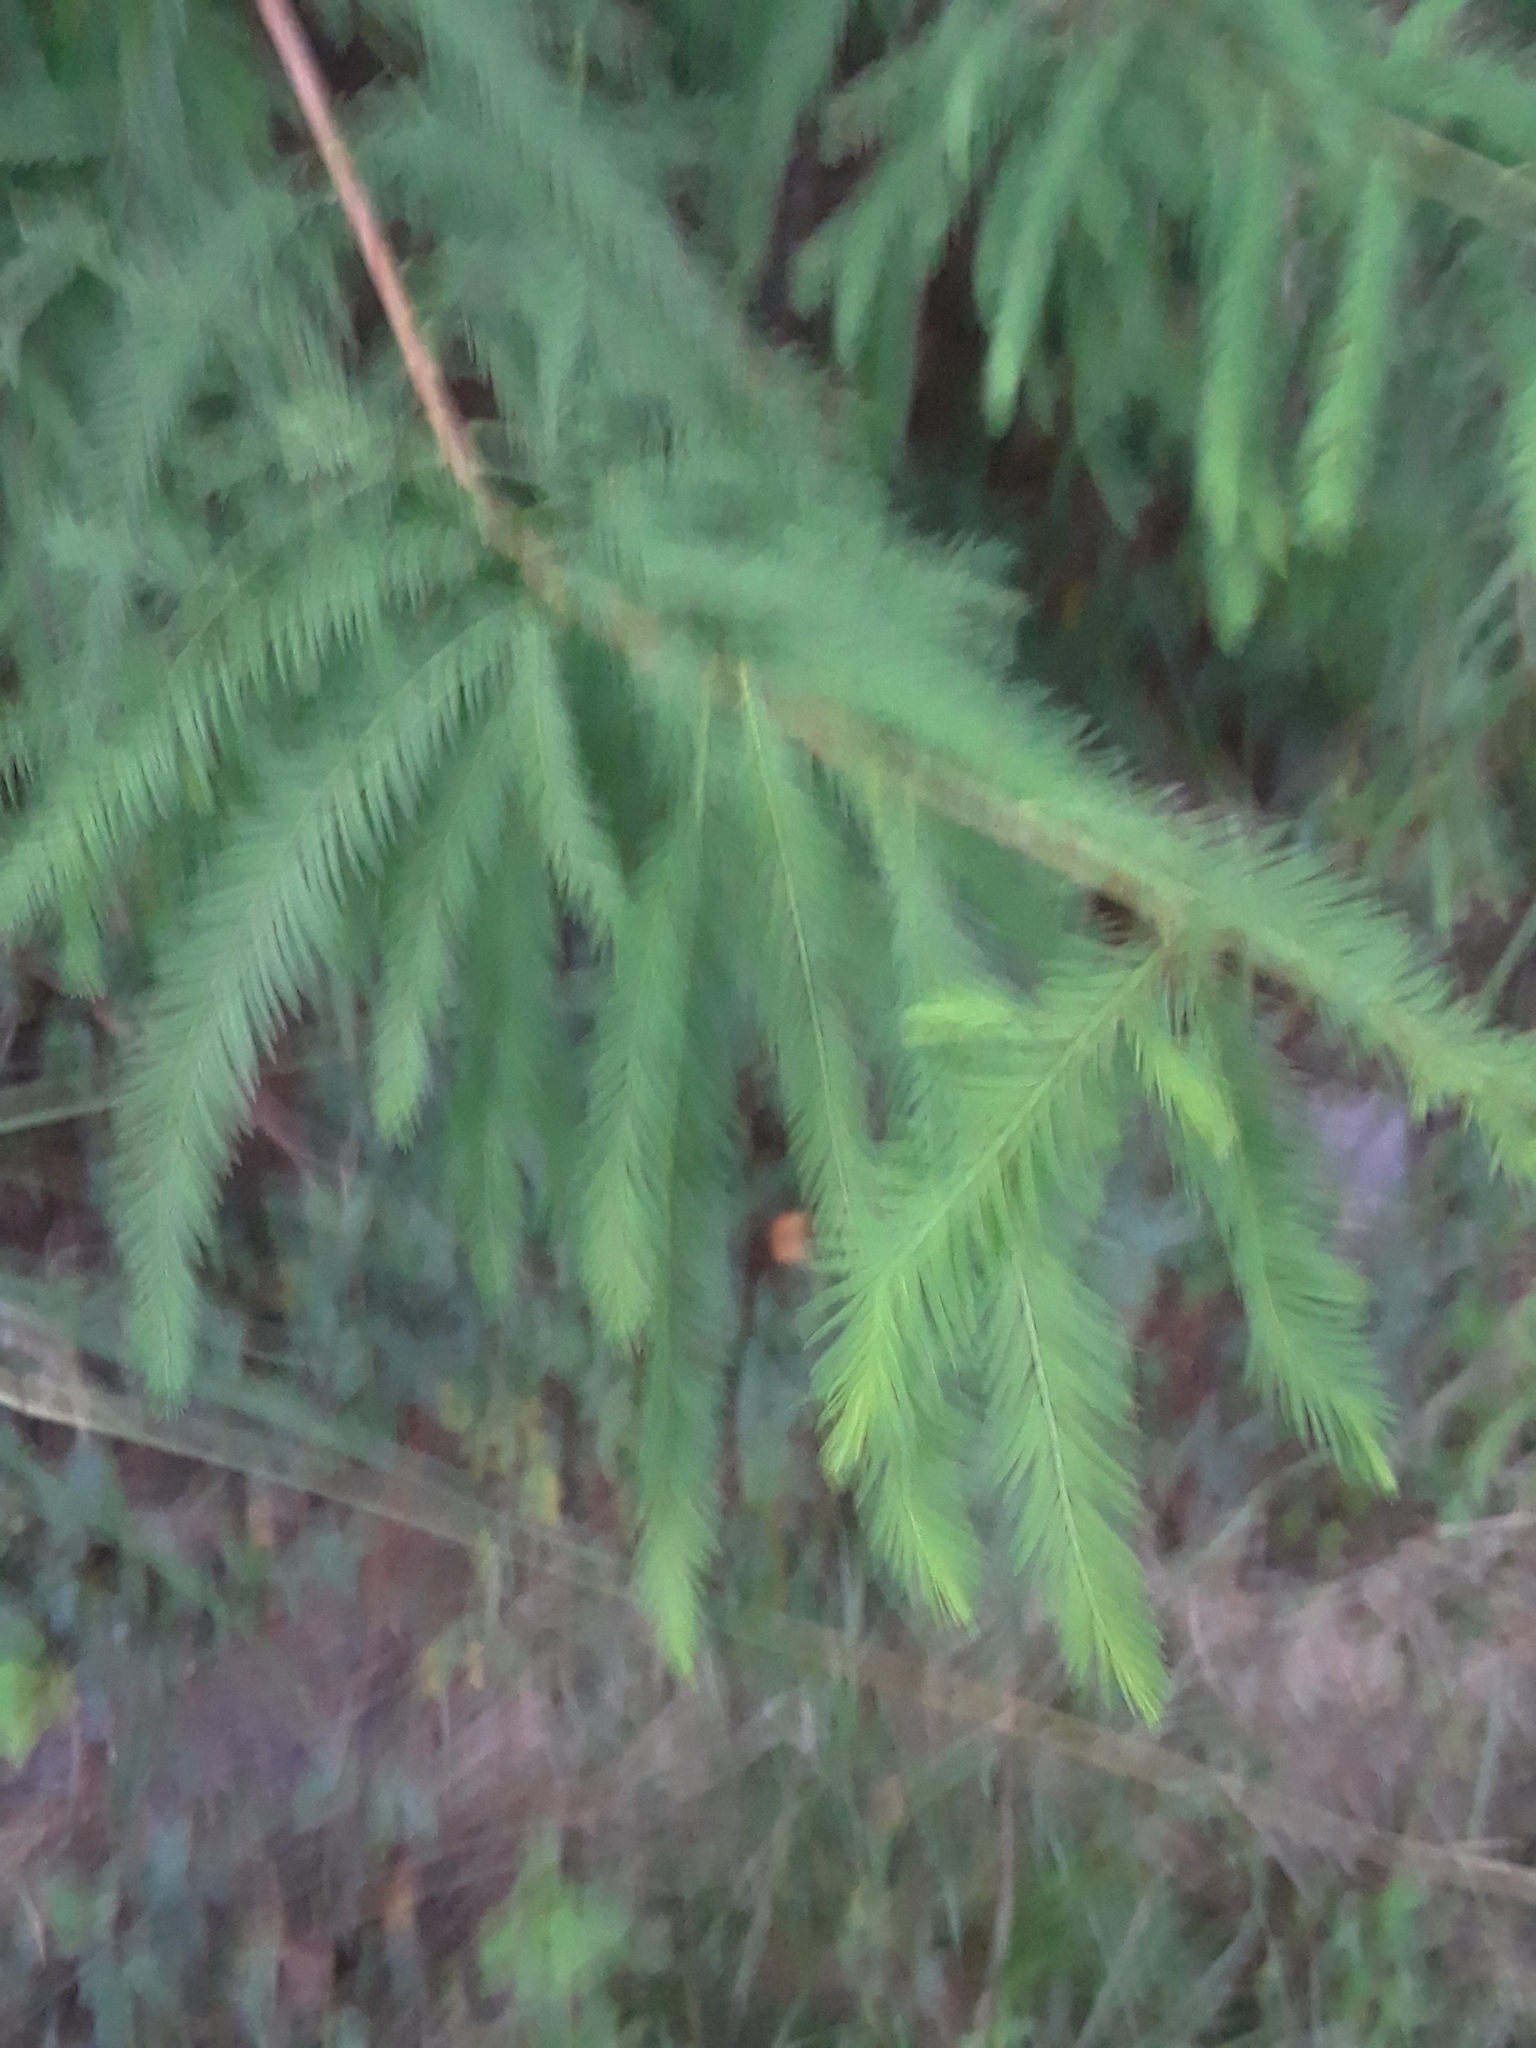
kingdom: Plantae
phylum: Tracheophyta
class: Pinopsida
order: Pinales
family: Cupressaceae
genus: Taxodium
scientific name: Taxodium distichum
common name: Bald cypress
